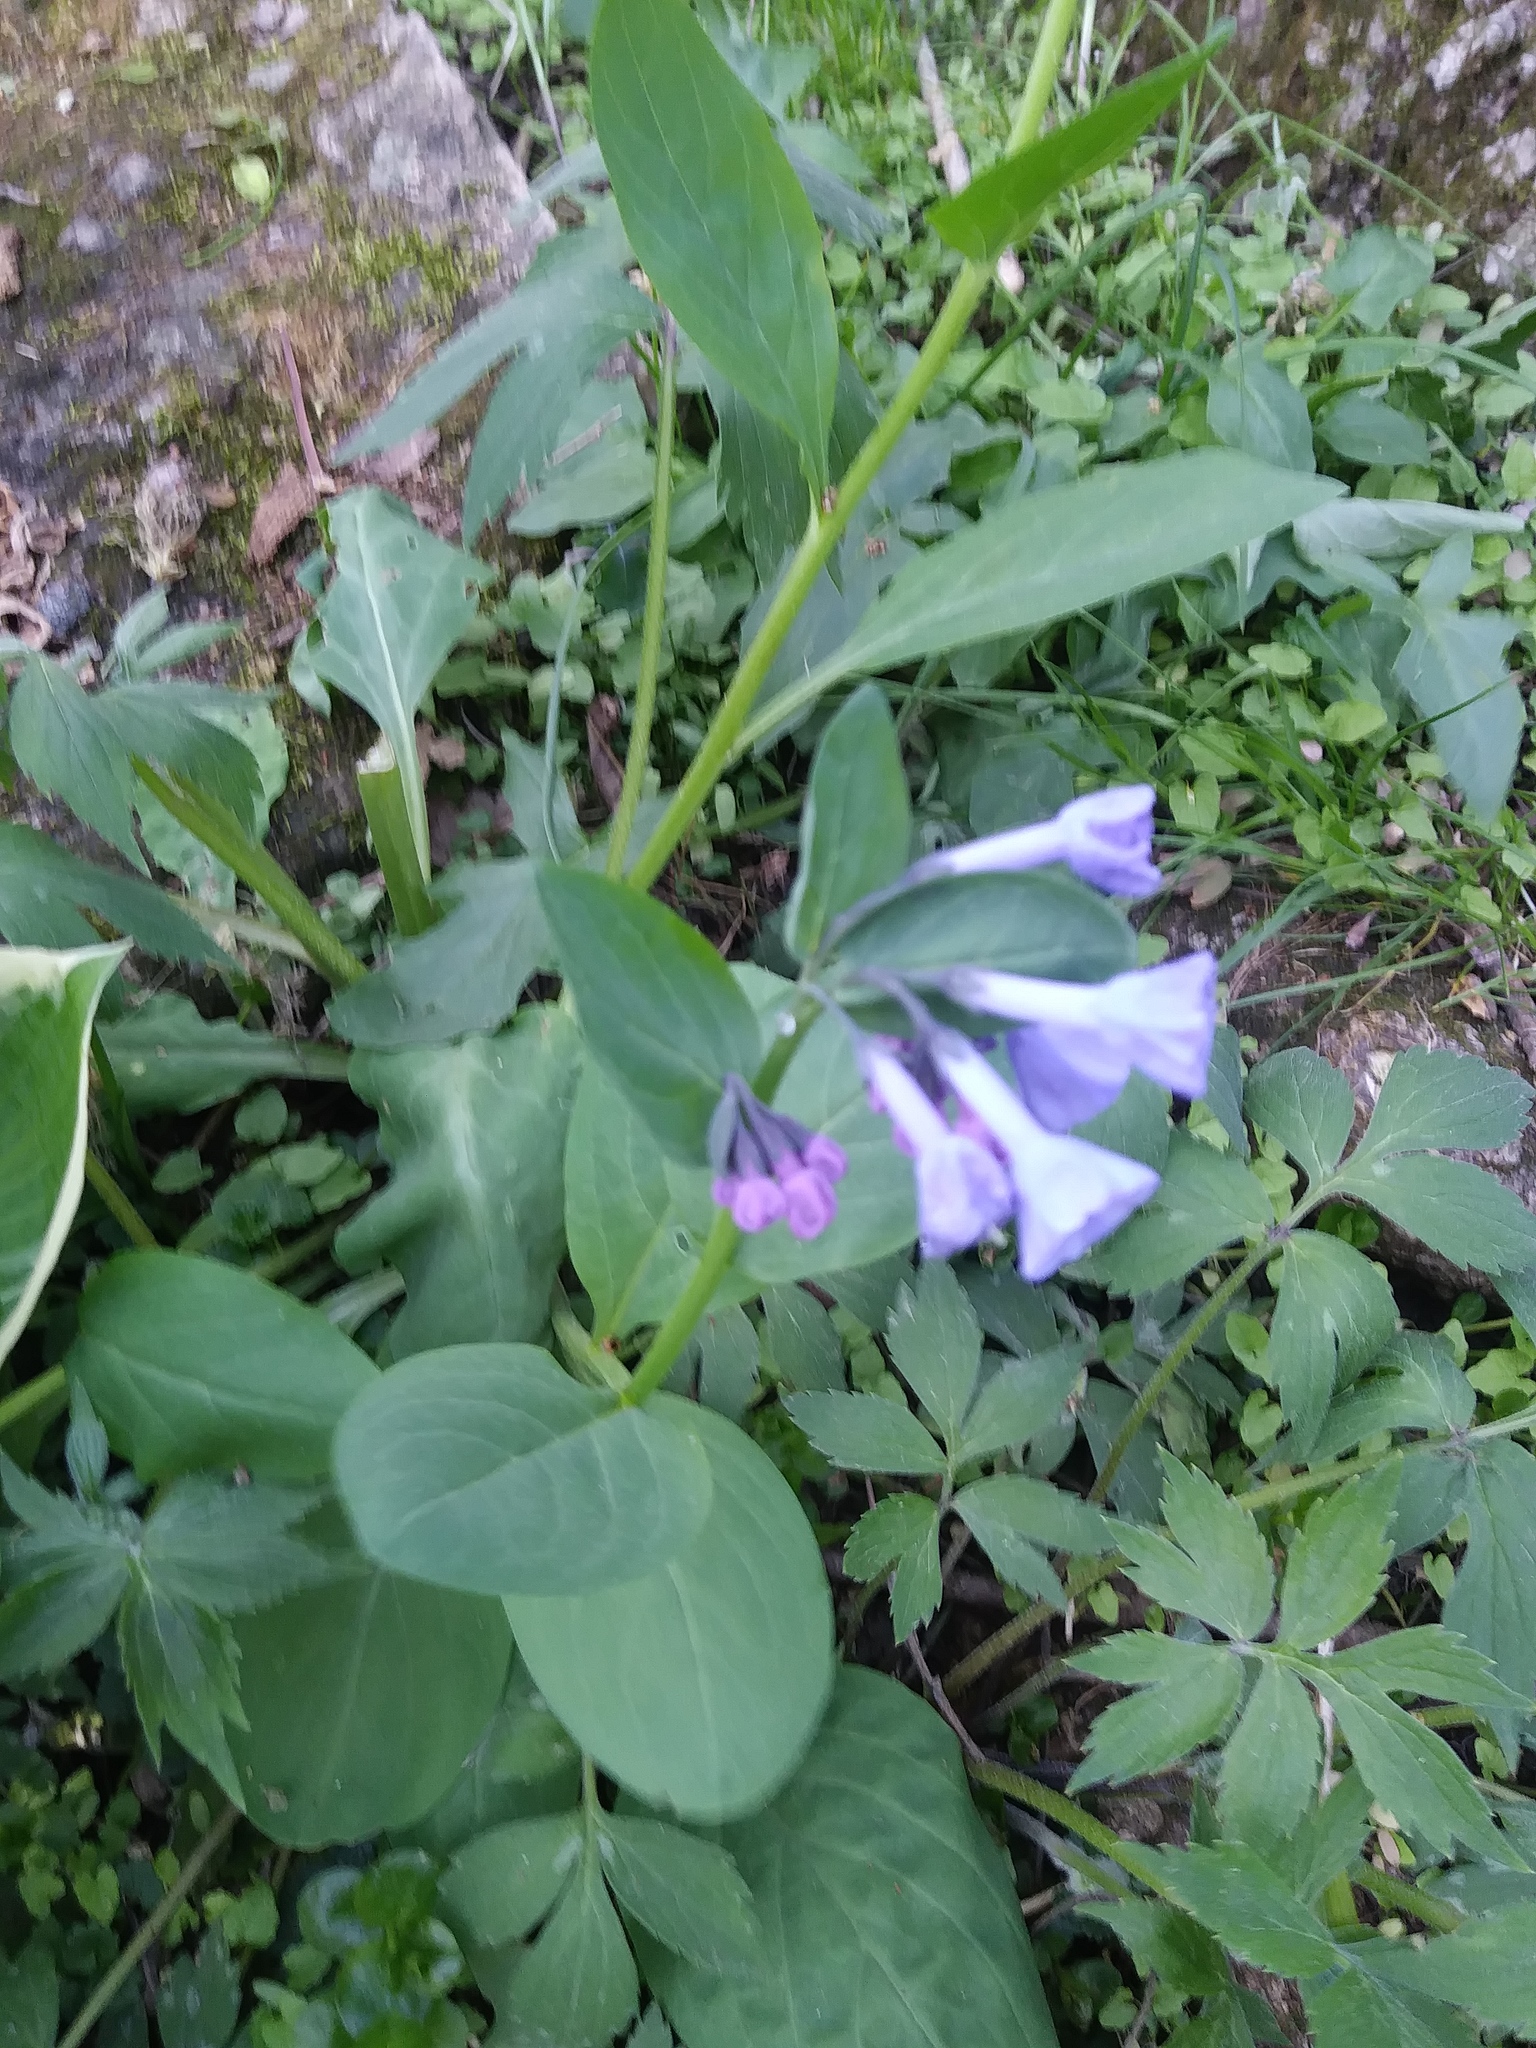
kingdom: Plantae
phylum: Tracheophyta
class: Magnoliopsida
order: Boraginales
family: Boraginaceae
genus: Mertensia
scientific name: Mertensia virginica
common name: Virginia bluebells
